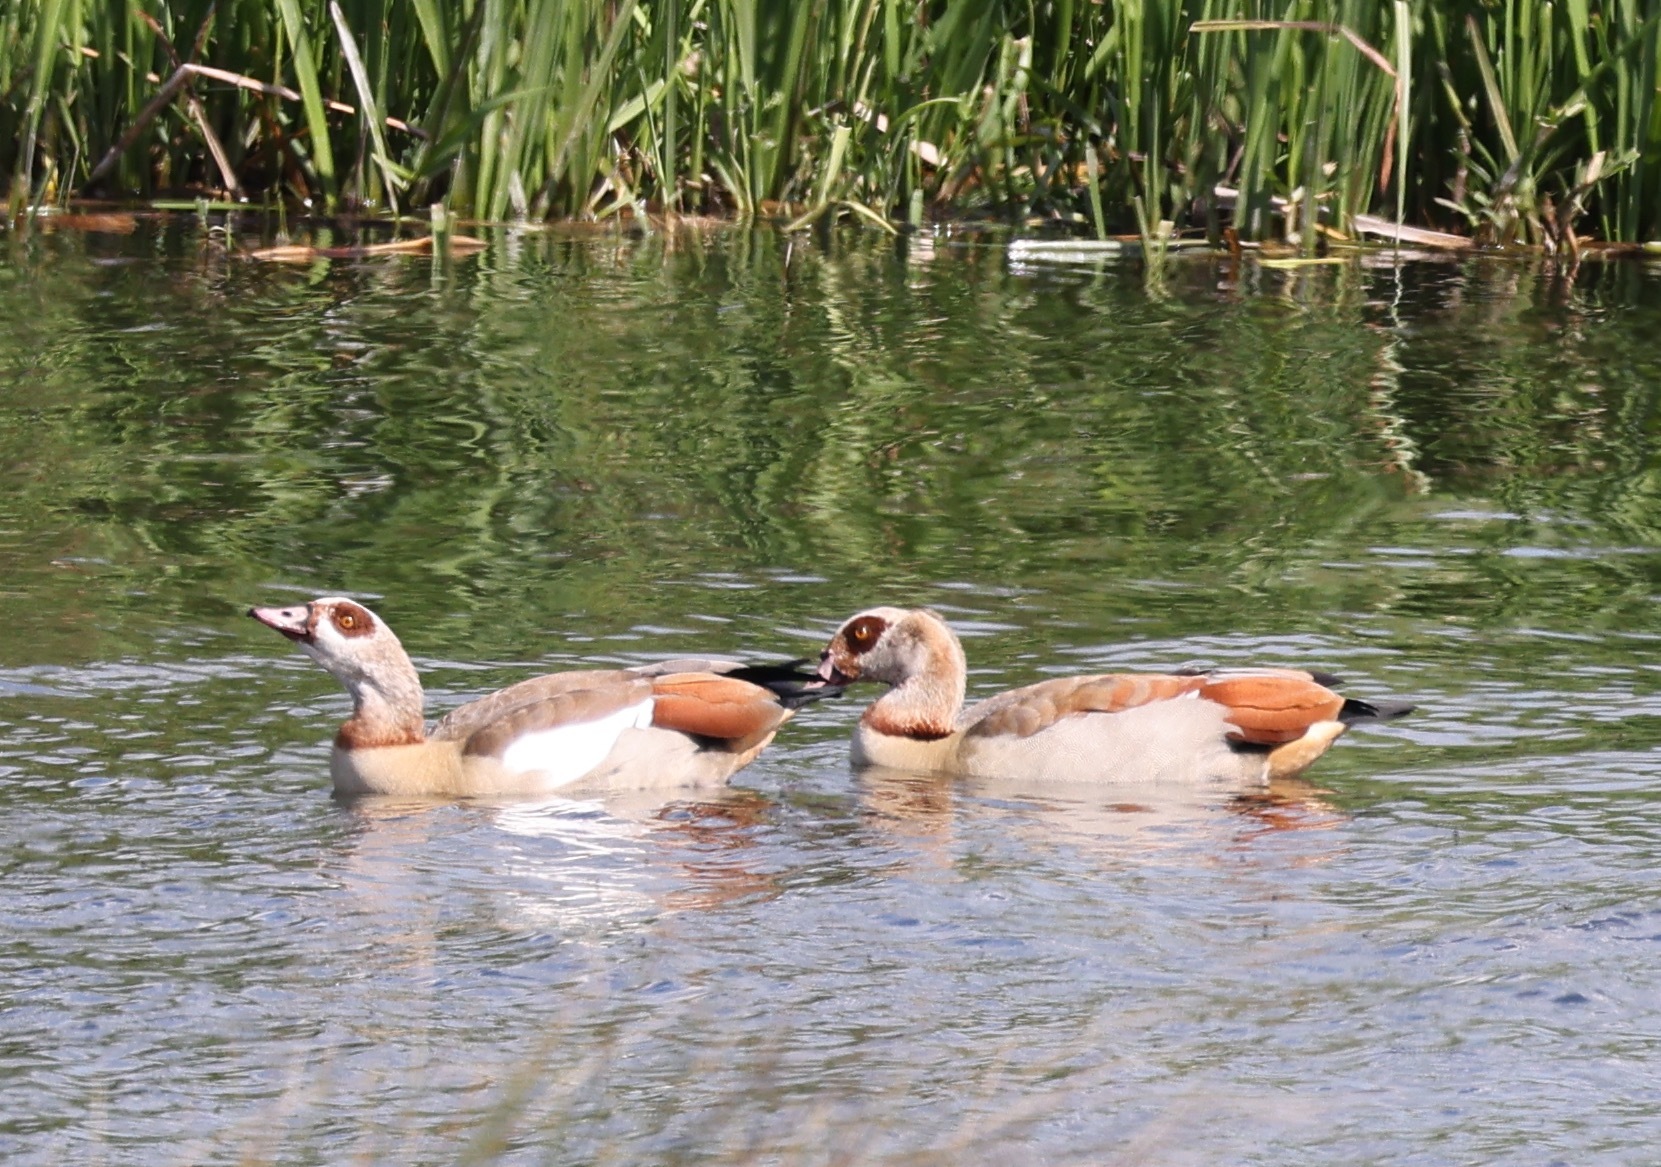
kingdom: Animalia
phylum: Chordata
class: Aves
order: Anseriformes
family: Anatidae
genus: Alopochen
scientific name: Alopochen aegyptiaca
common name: Egyptian goose
